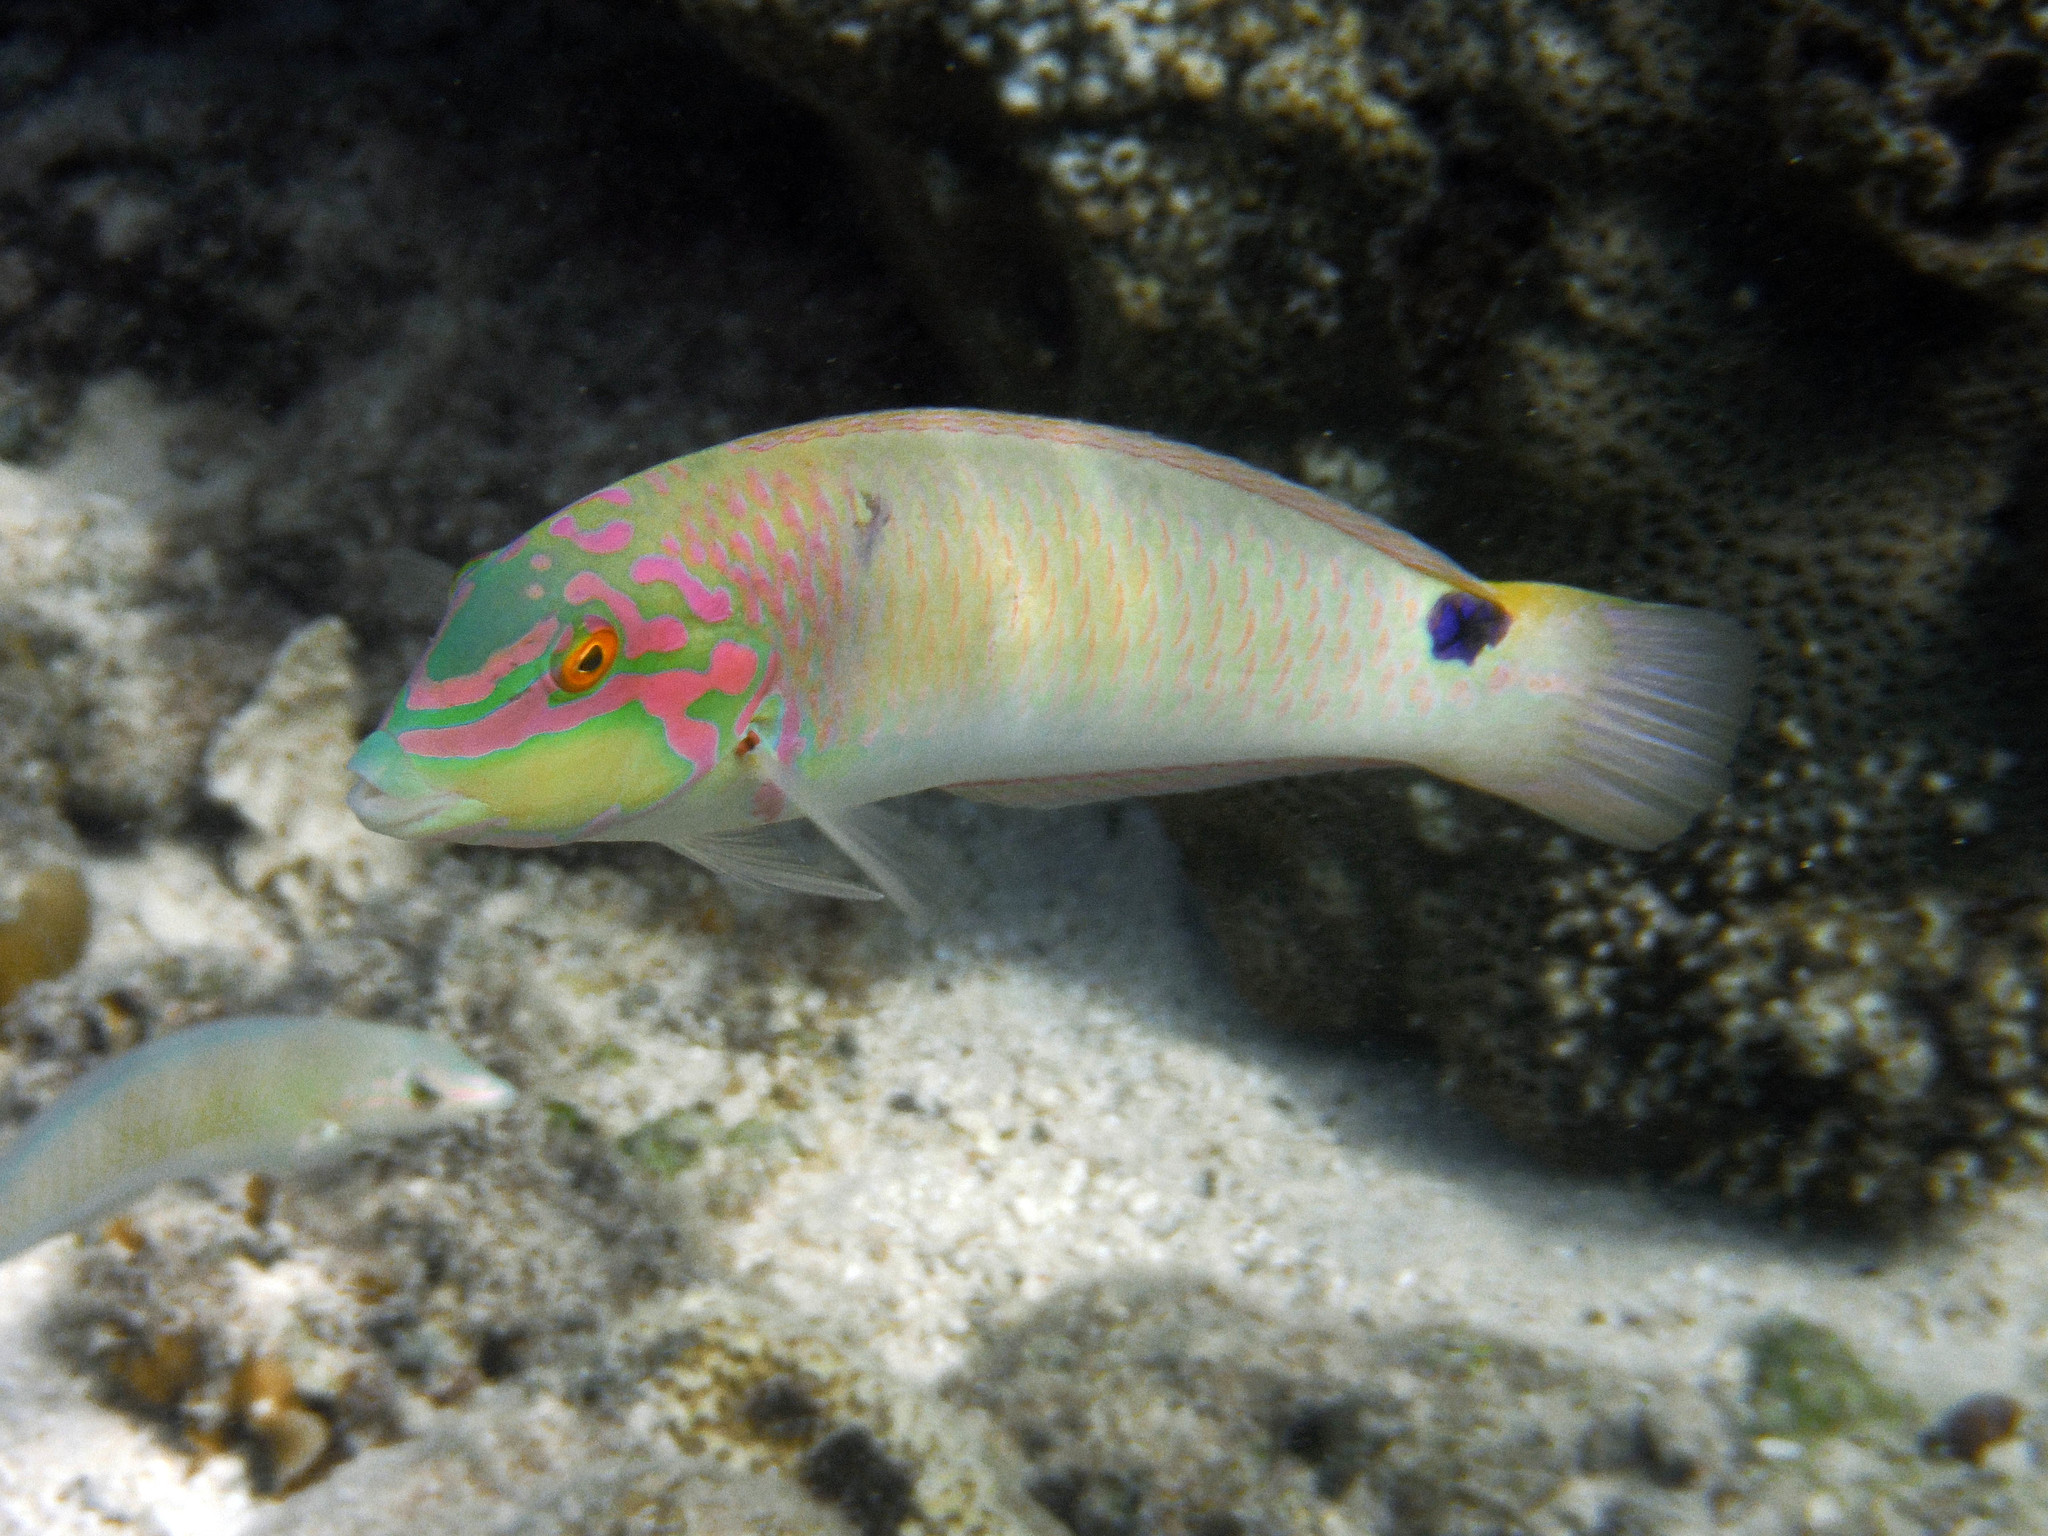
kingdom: Animalia
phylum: Chordata
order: Perciformes
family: Labridae
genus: Halichoeres
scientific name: Halichoeres trimaculatus
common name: Three-spot wrasse
